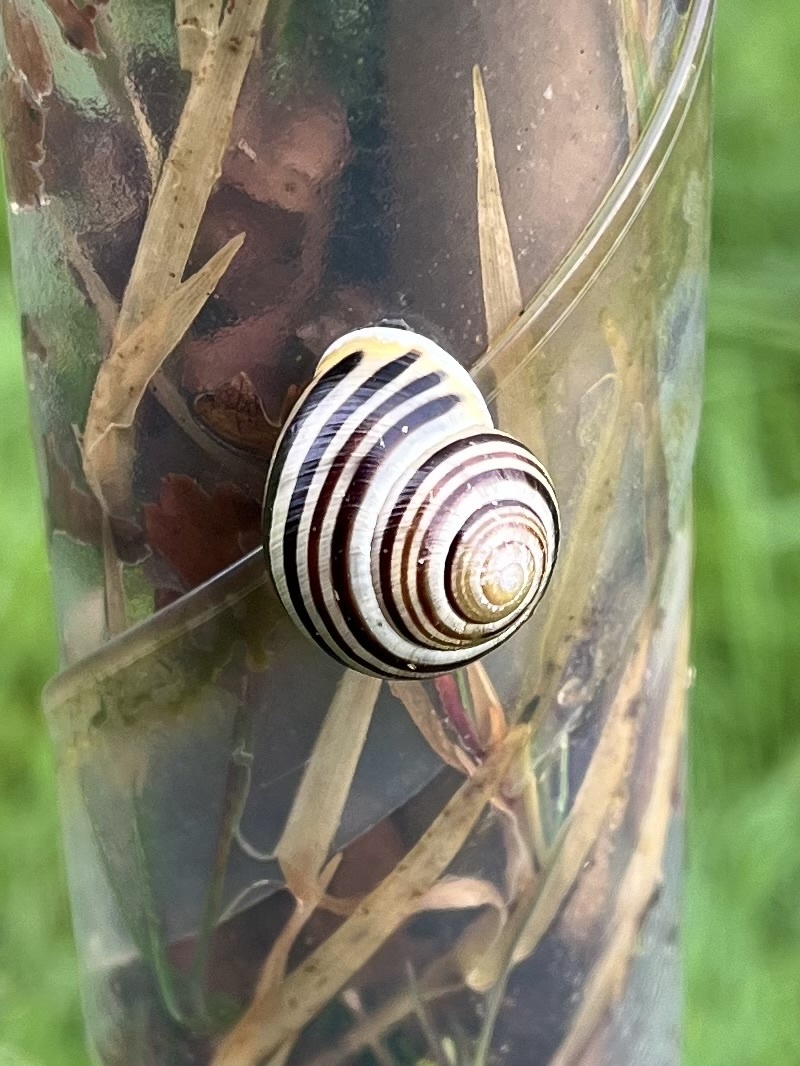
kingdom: Animalia
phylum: Mollusca
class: Gastropoda
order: Stylommatophora
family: Helicidae
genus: Cepaea
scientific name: Cepaea hortensis
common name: White-lip gardensnail
